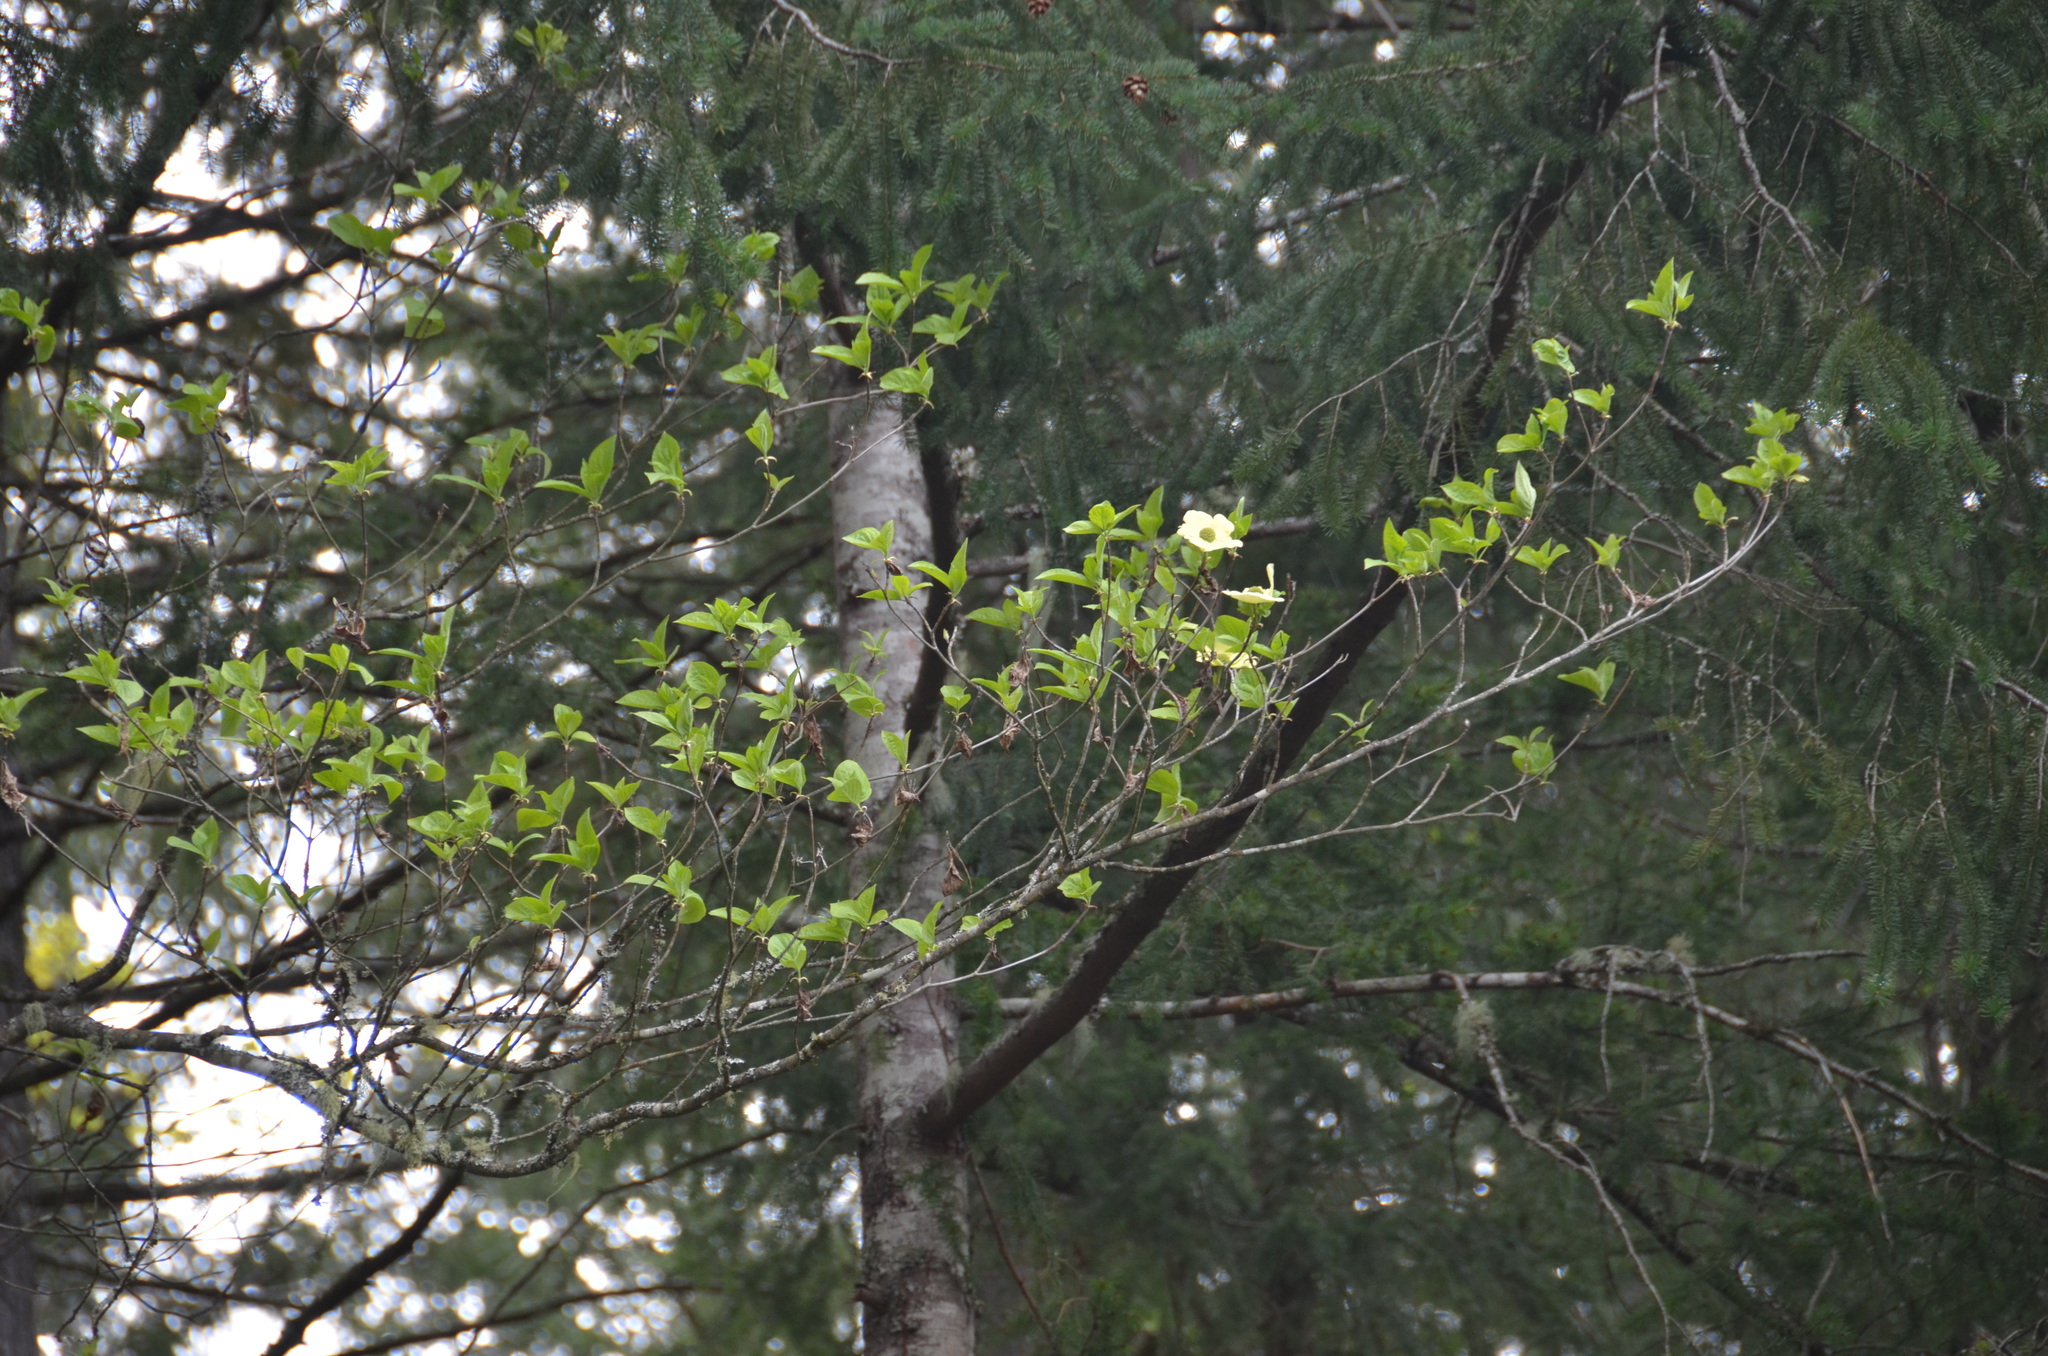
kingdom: Plantae
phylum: Tracheophyta
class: Magnoliopsida
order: Cornales
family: Cornaceae
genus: Cornus
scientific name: Cornus nuttallii
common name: Pacific dogwood
